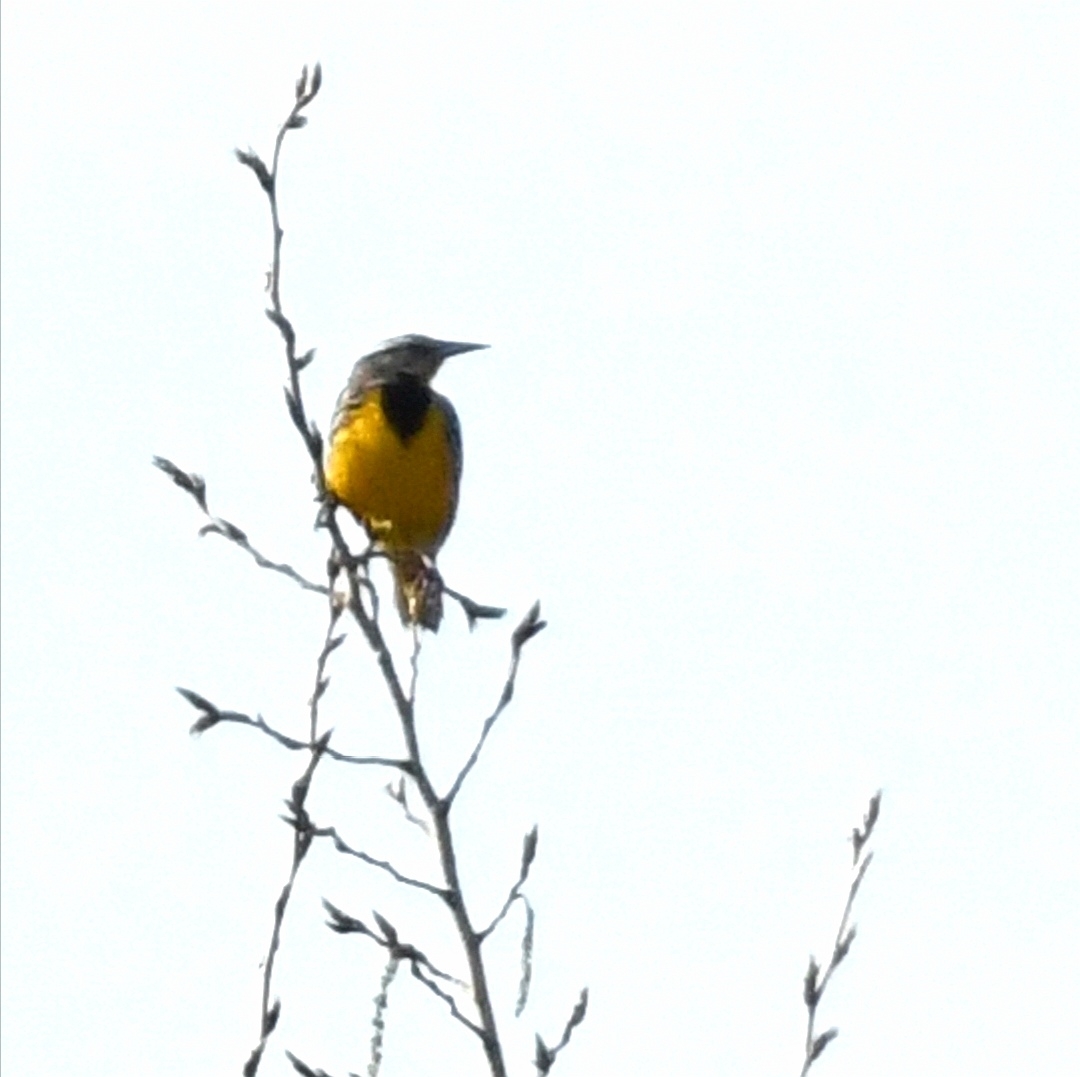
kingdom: Animalia
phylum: Chordata
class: Aves
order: Passeriformes
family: Icteridae
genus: Sturnella
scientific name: Sturnella magna
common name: Eastern meadowlark
